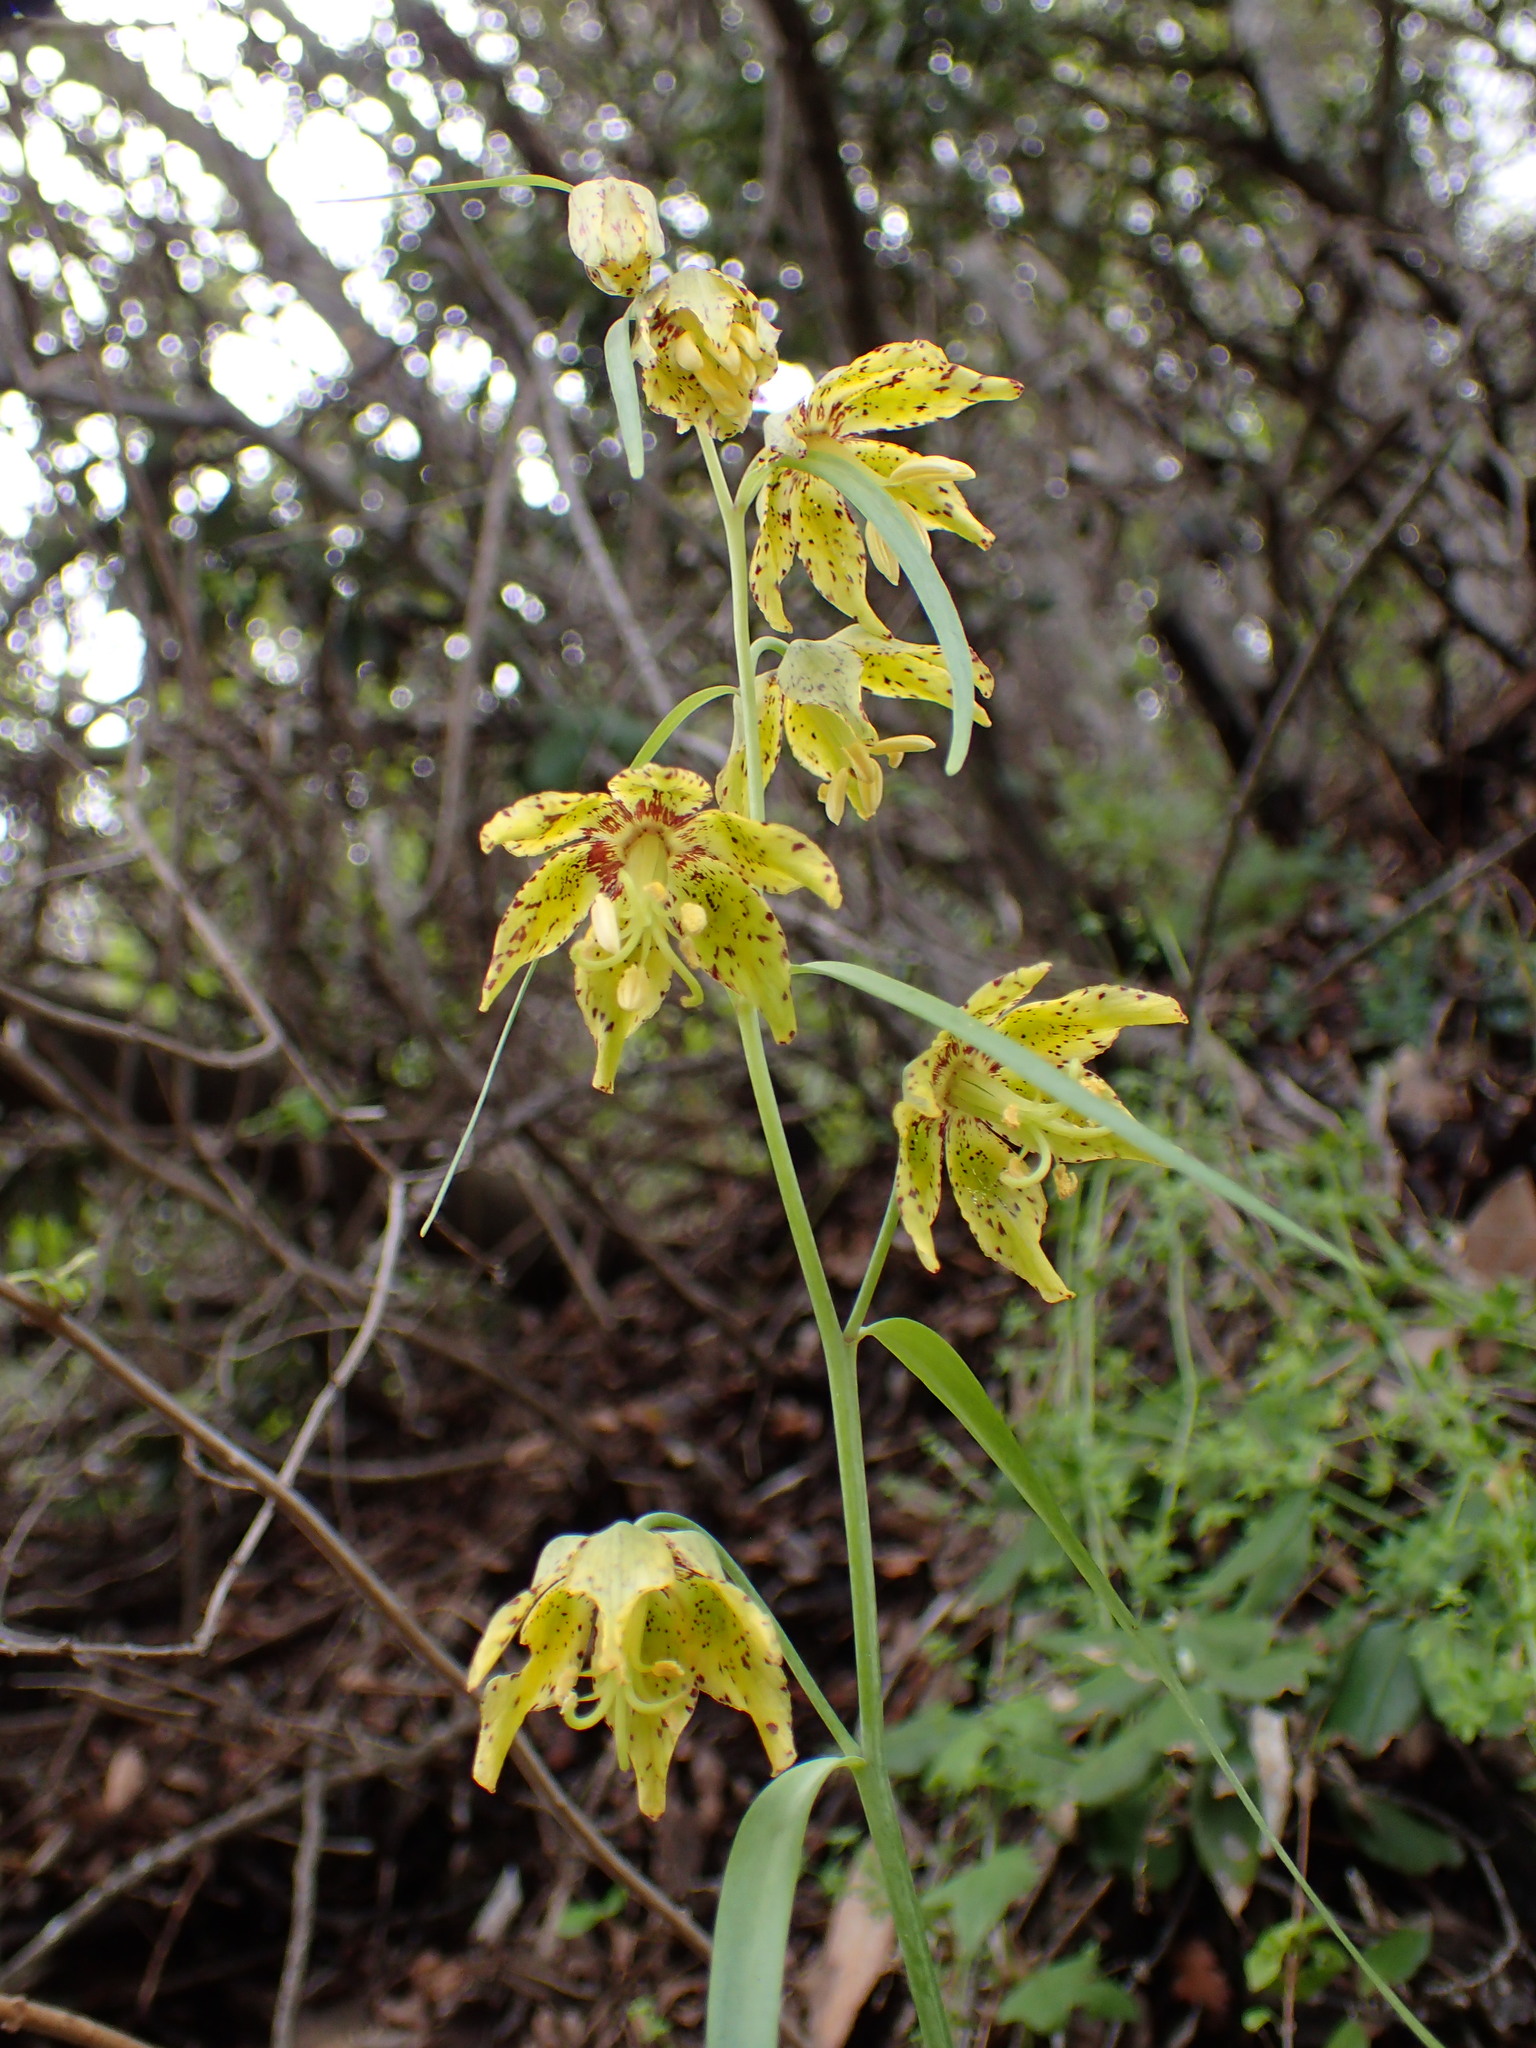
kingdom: Plantae
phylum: Tracheophyta
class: Liliopsida
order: Liliales
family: Liliaceae
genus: Fritillaria
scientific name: Fritillaria ojaiensis
